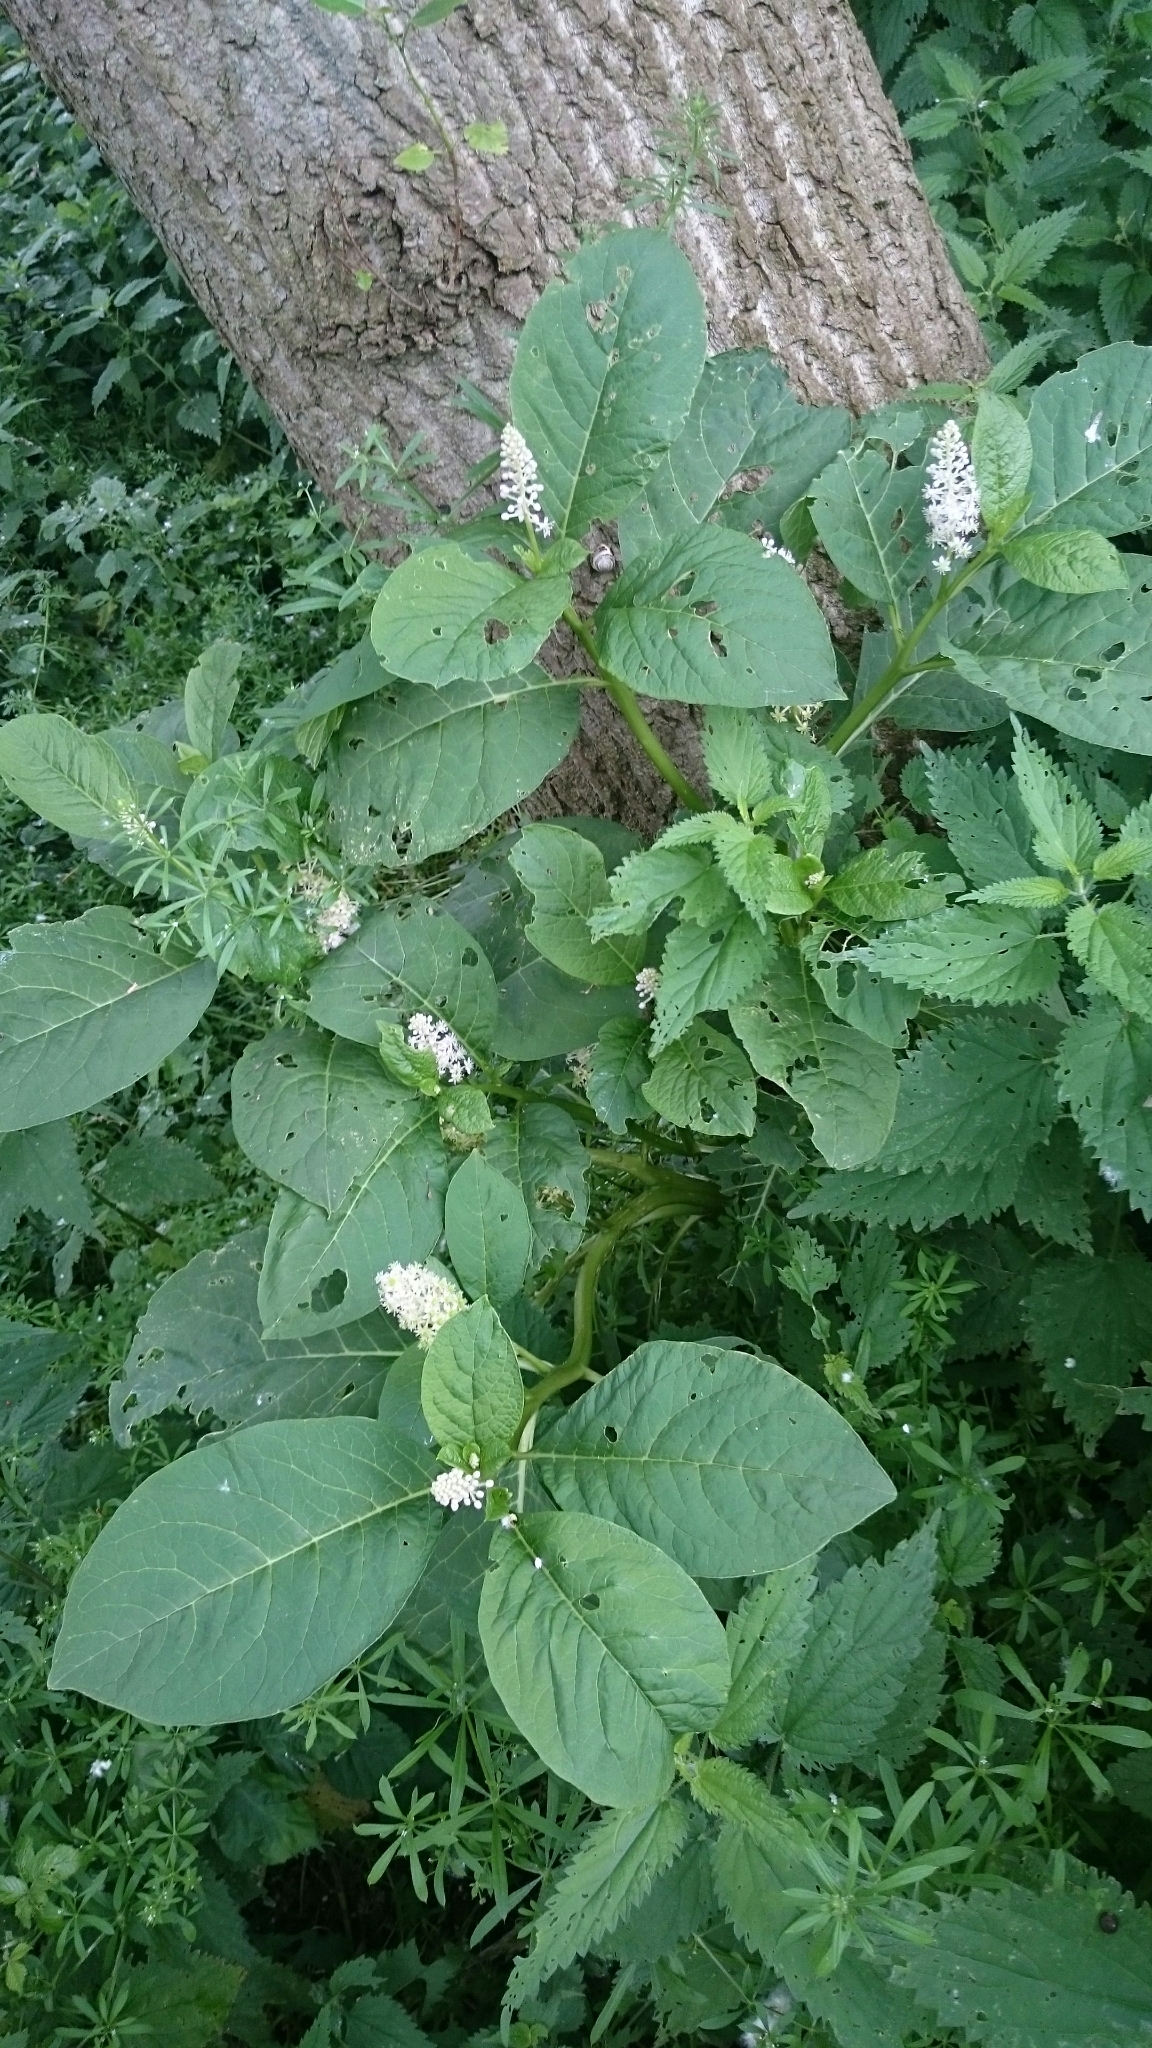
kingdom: Plantae
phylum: Tracheophyta
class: Magnoliopsida
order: Caryophyllales
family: Phytolaccaceae
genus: Phytolacca
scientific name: Phytolacca acinosa
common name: Indian pokeweed
